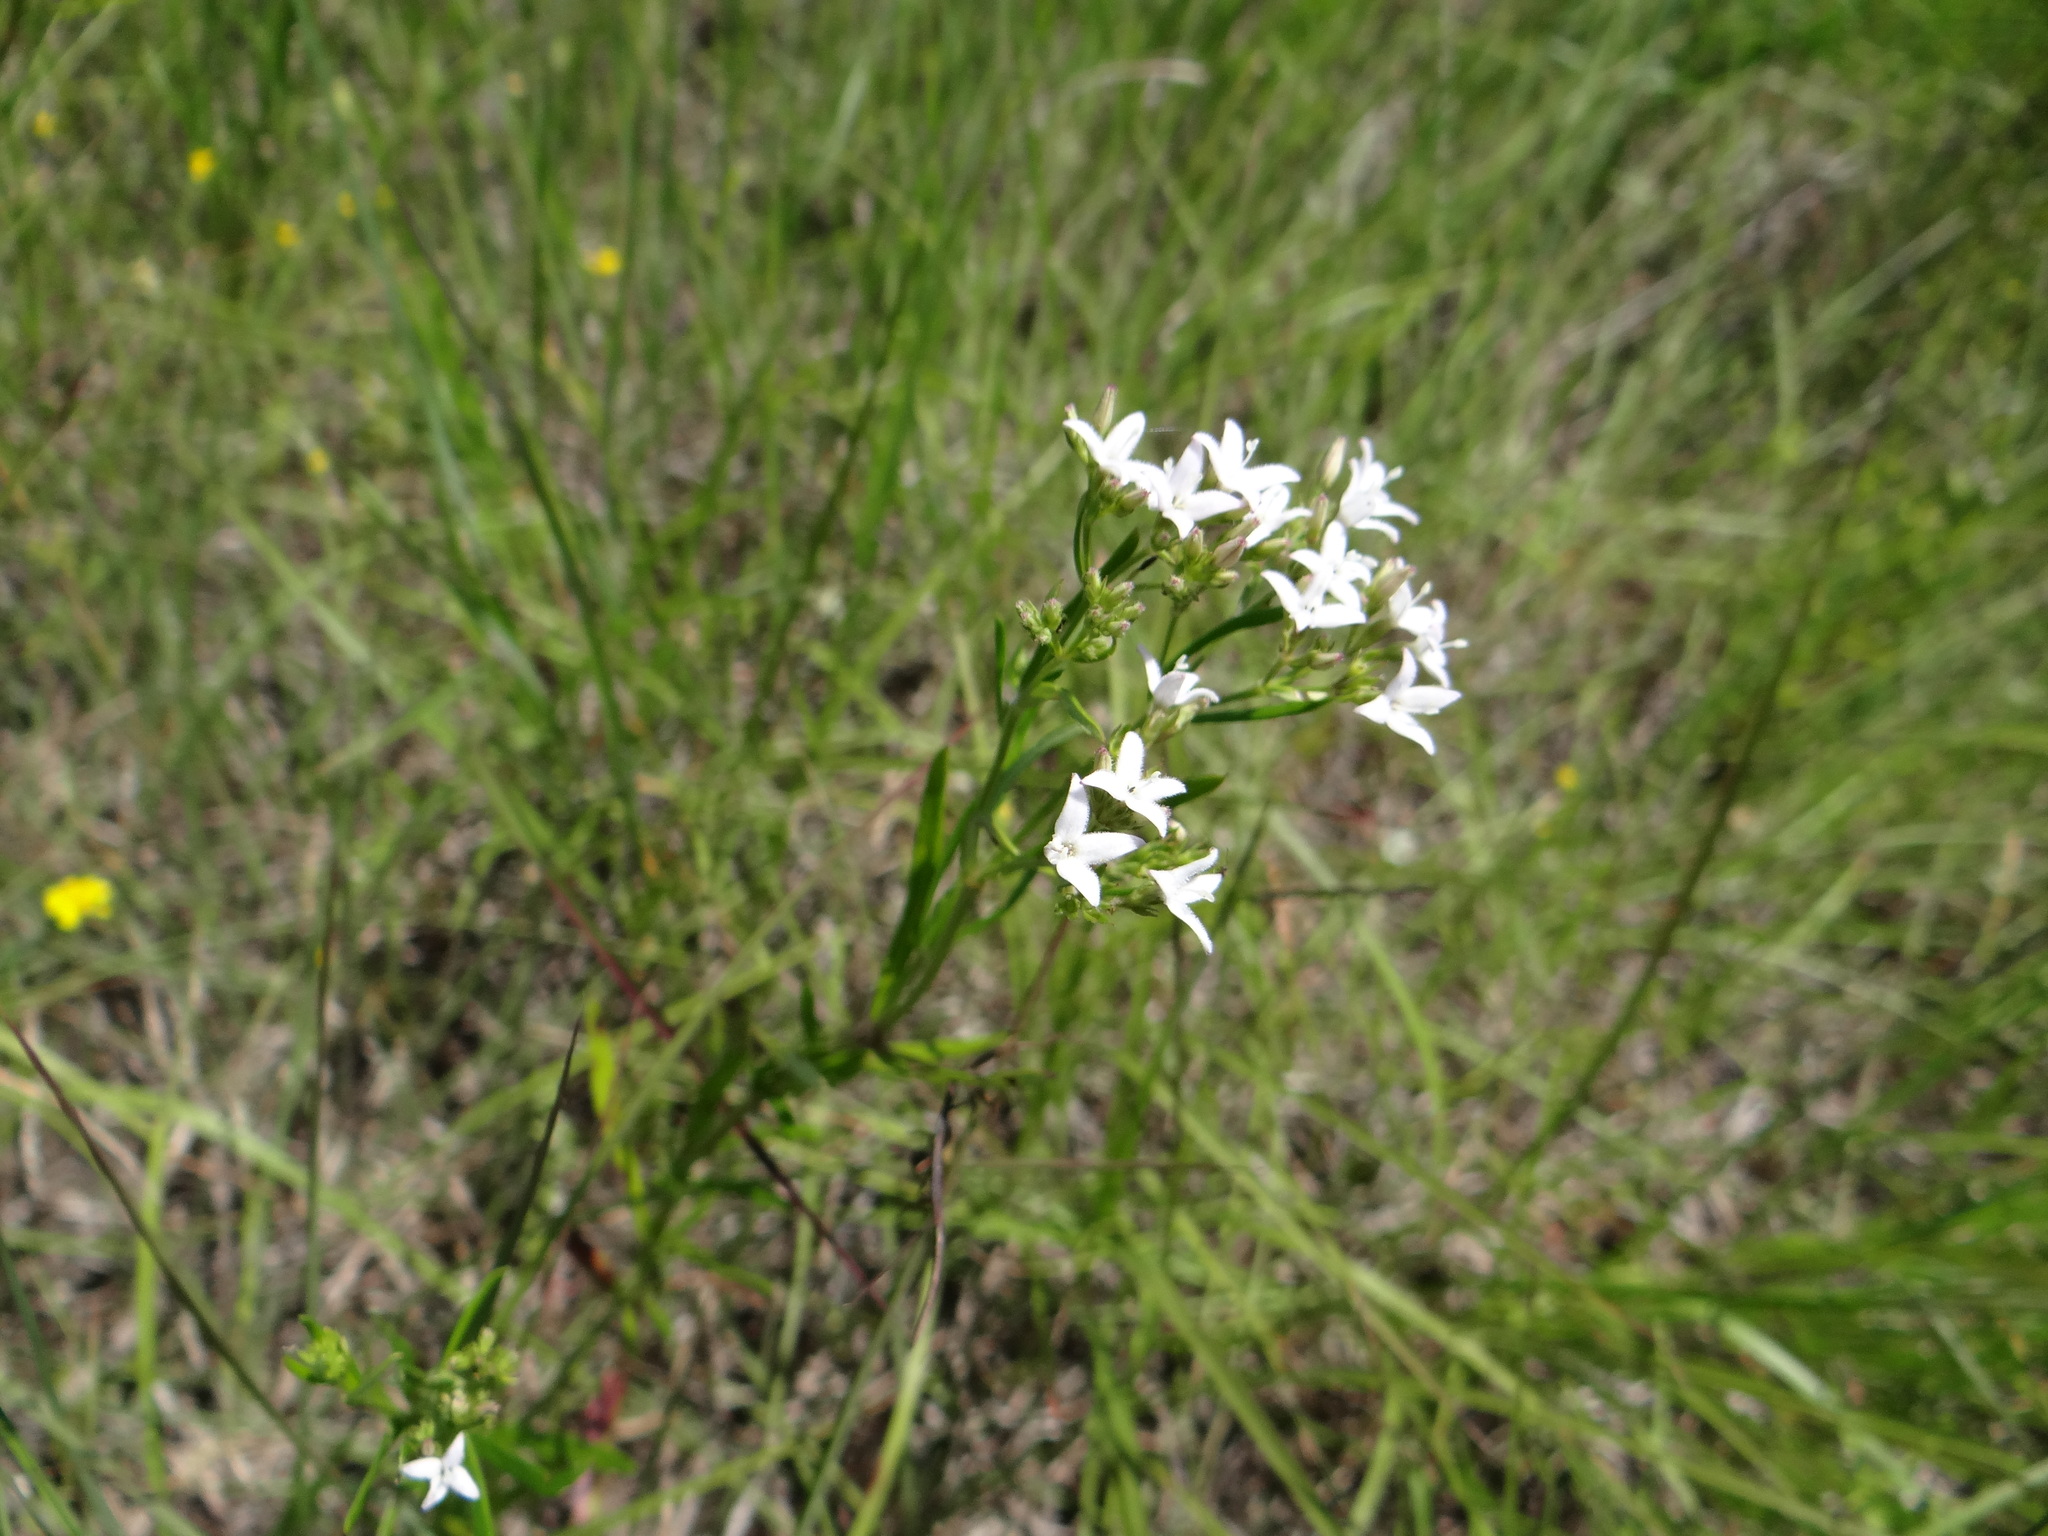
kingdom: Plantae
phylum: Tracheophyta
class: Magnoliopsida
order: Gentianales
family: Rubiaceae
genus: Stenaria
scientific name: Stenaria nigricans
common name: Diamondflowers
